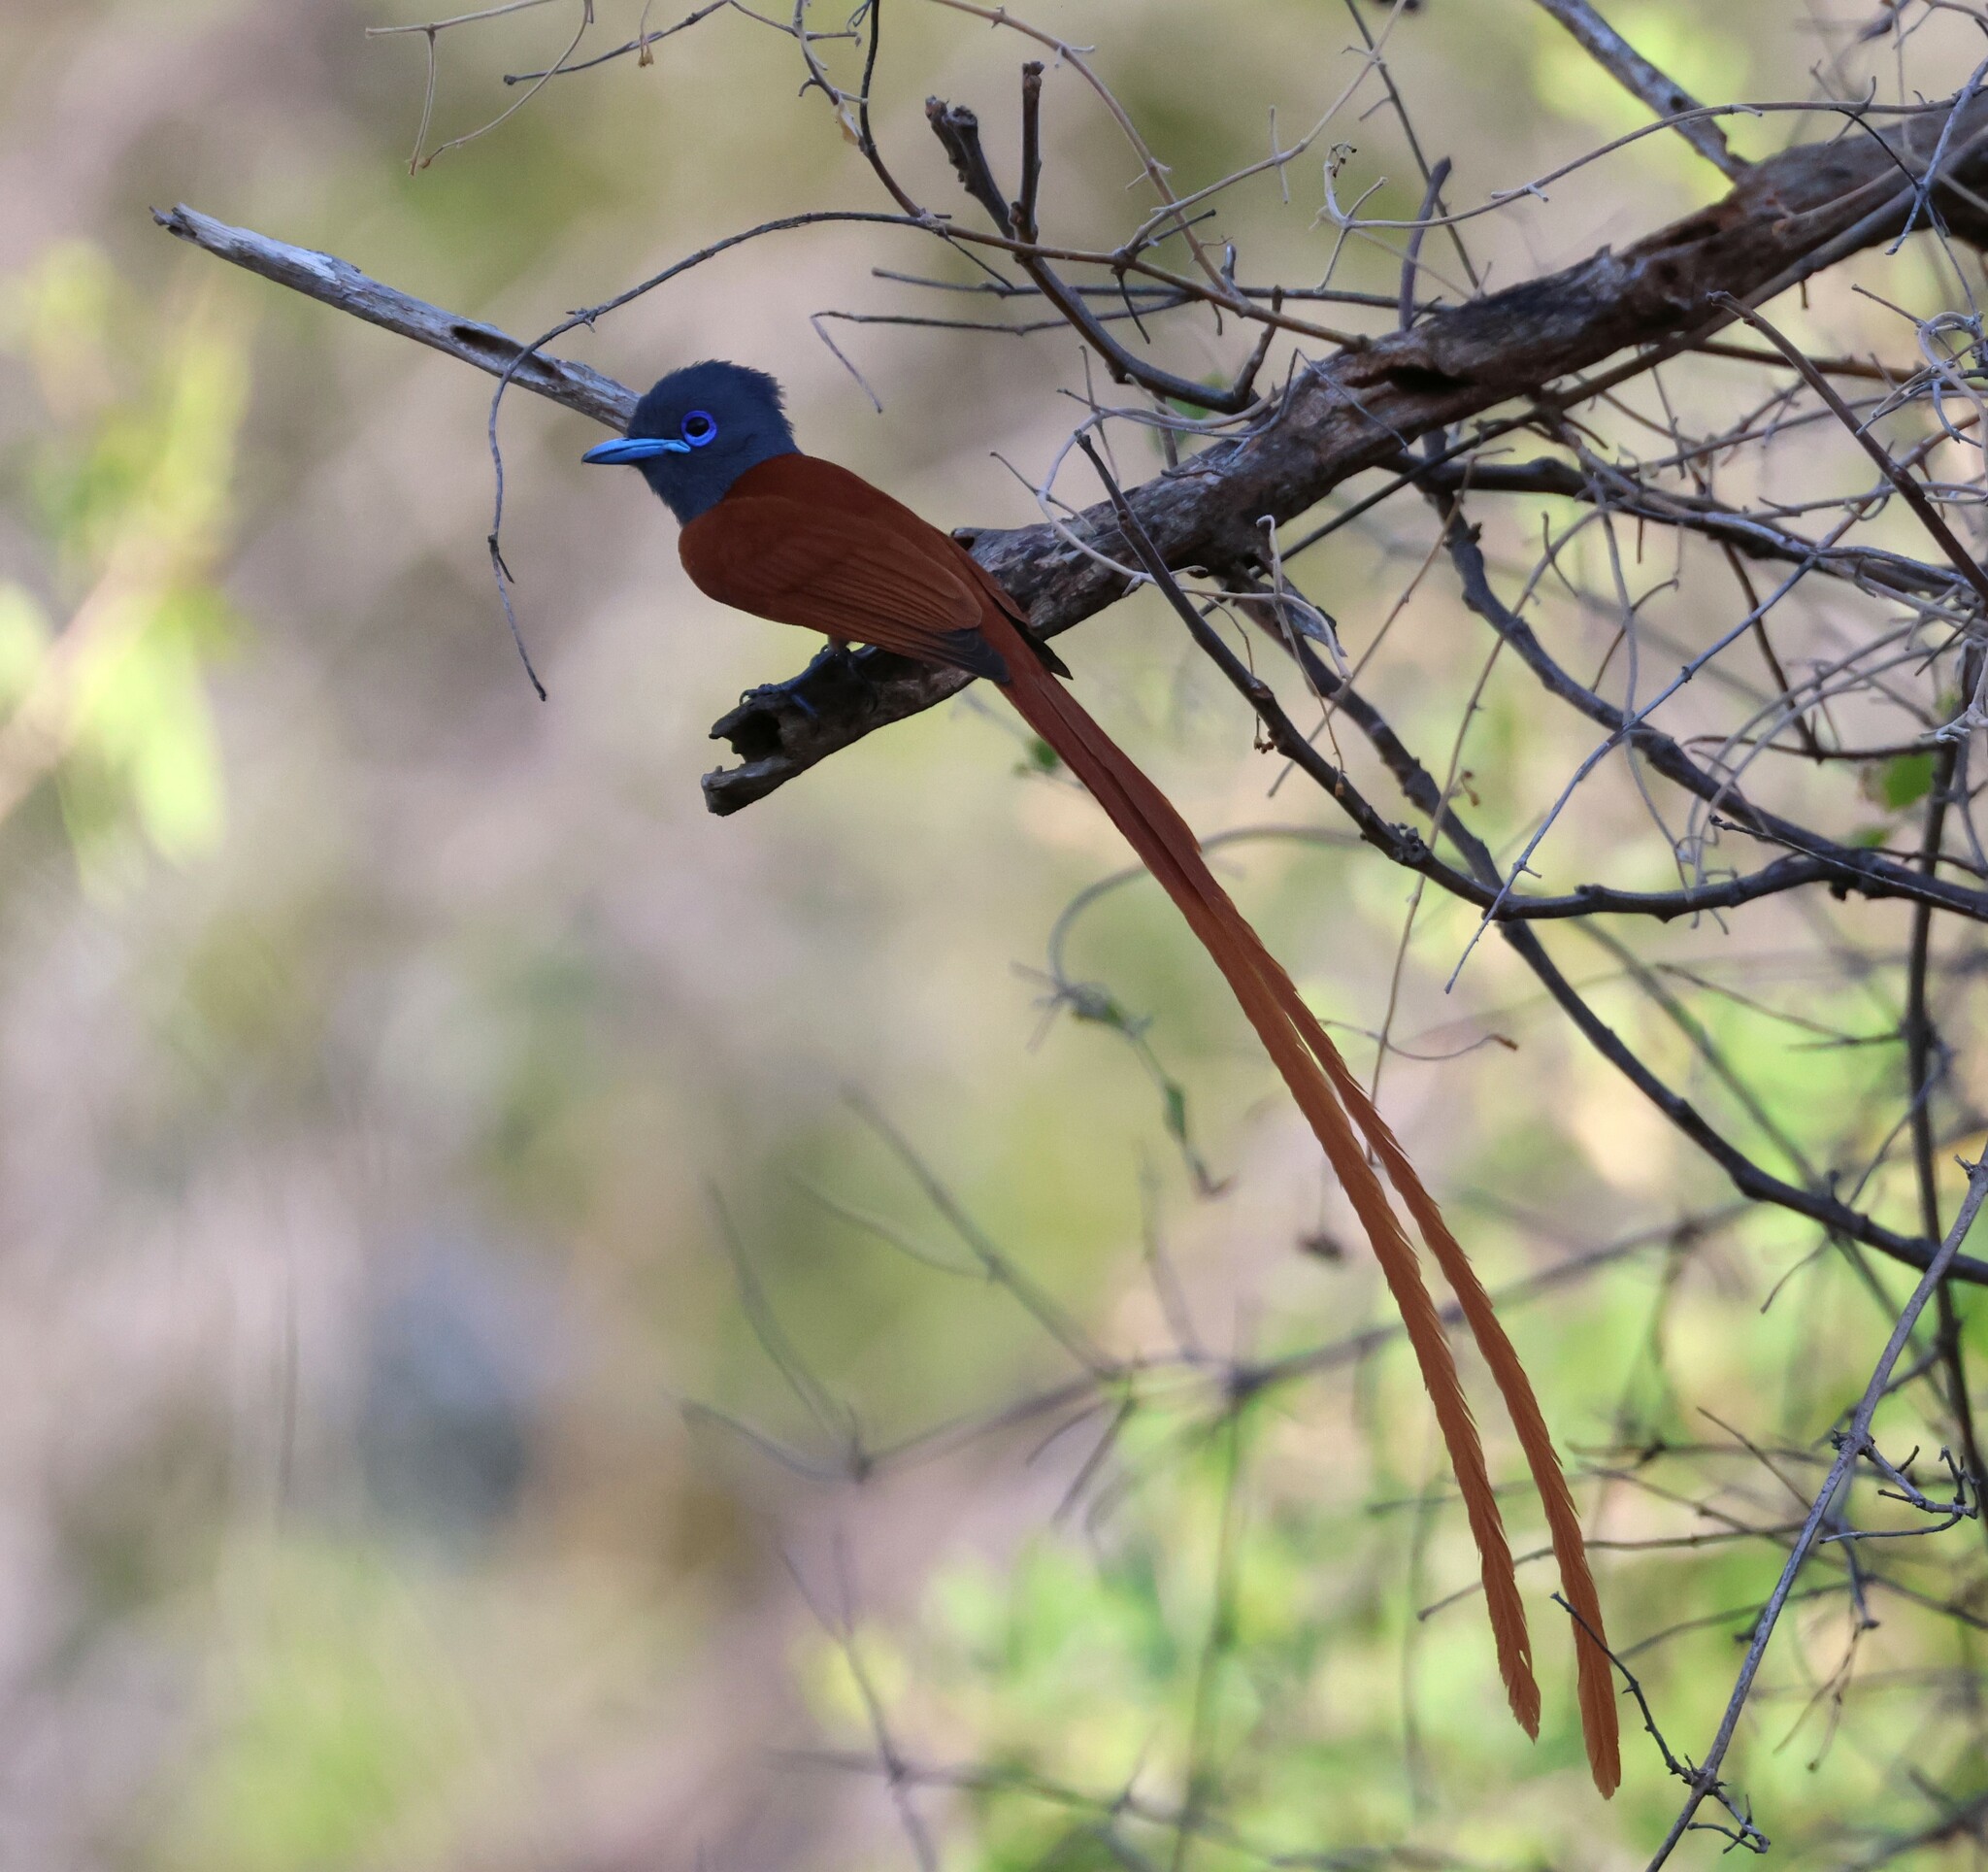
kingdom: Animalia
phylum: Chordata
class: Aves
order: Passeriformes
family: Monarchidae
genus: Terpsiphone
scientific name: Terpsiphone viridis
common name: African paradise flycatcher
